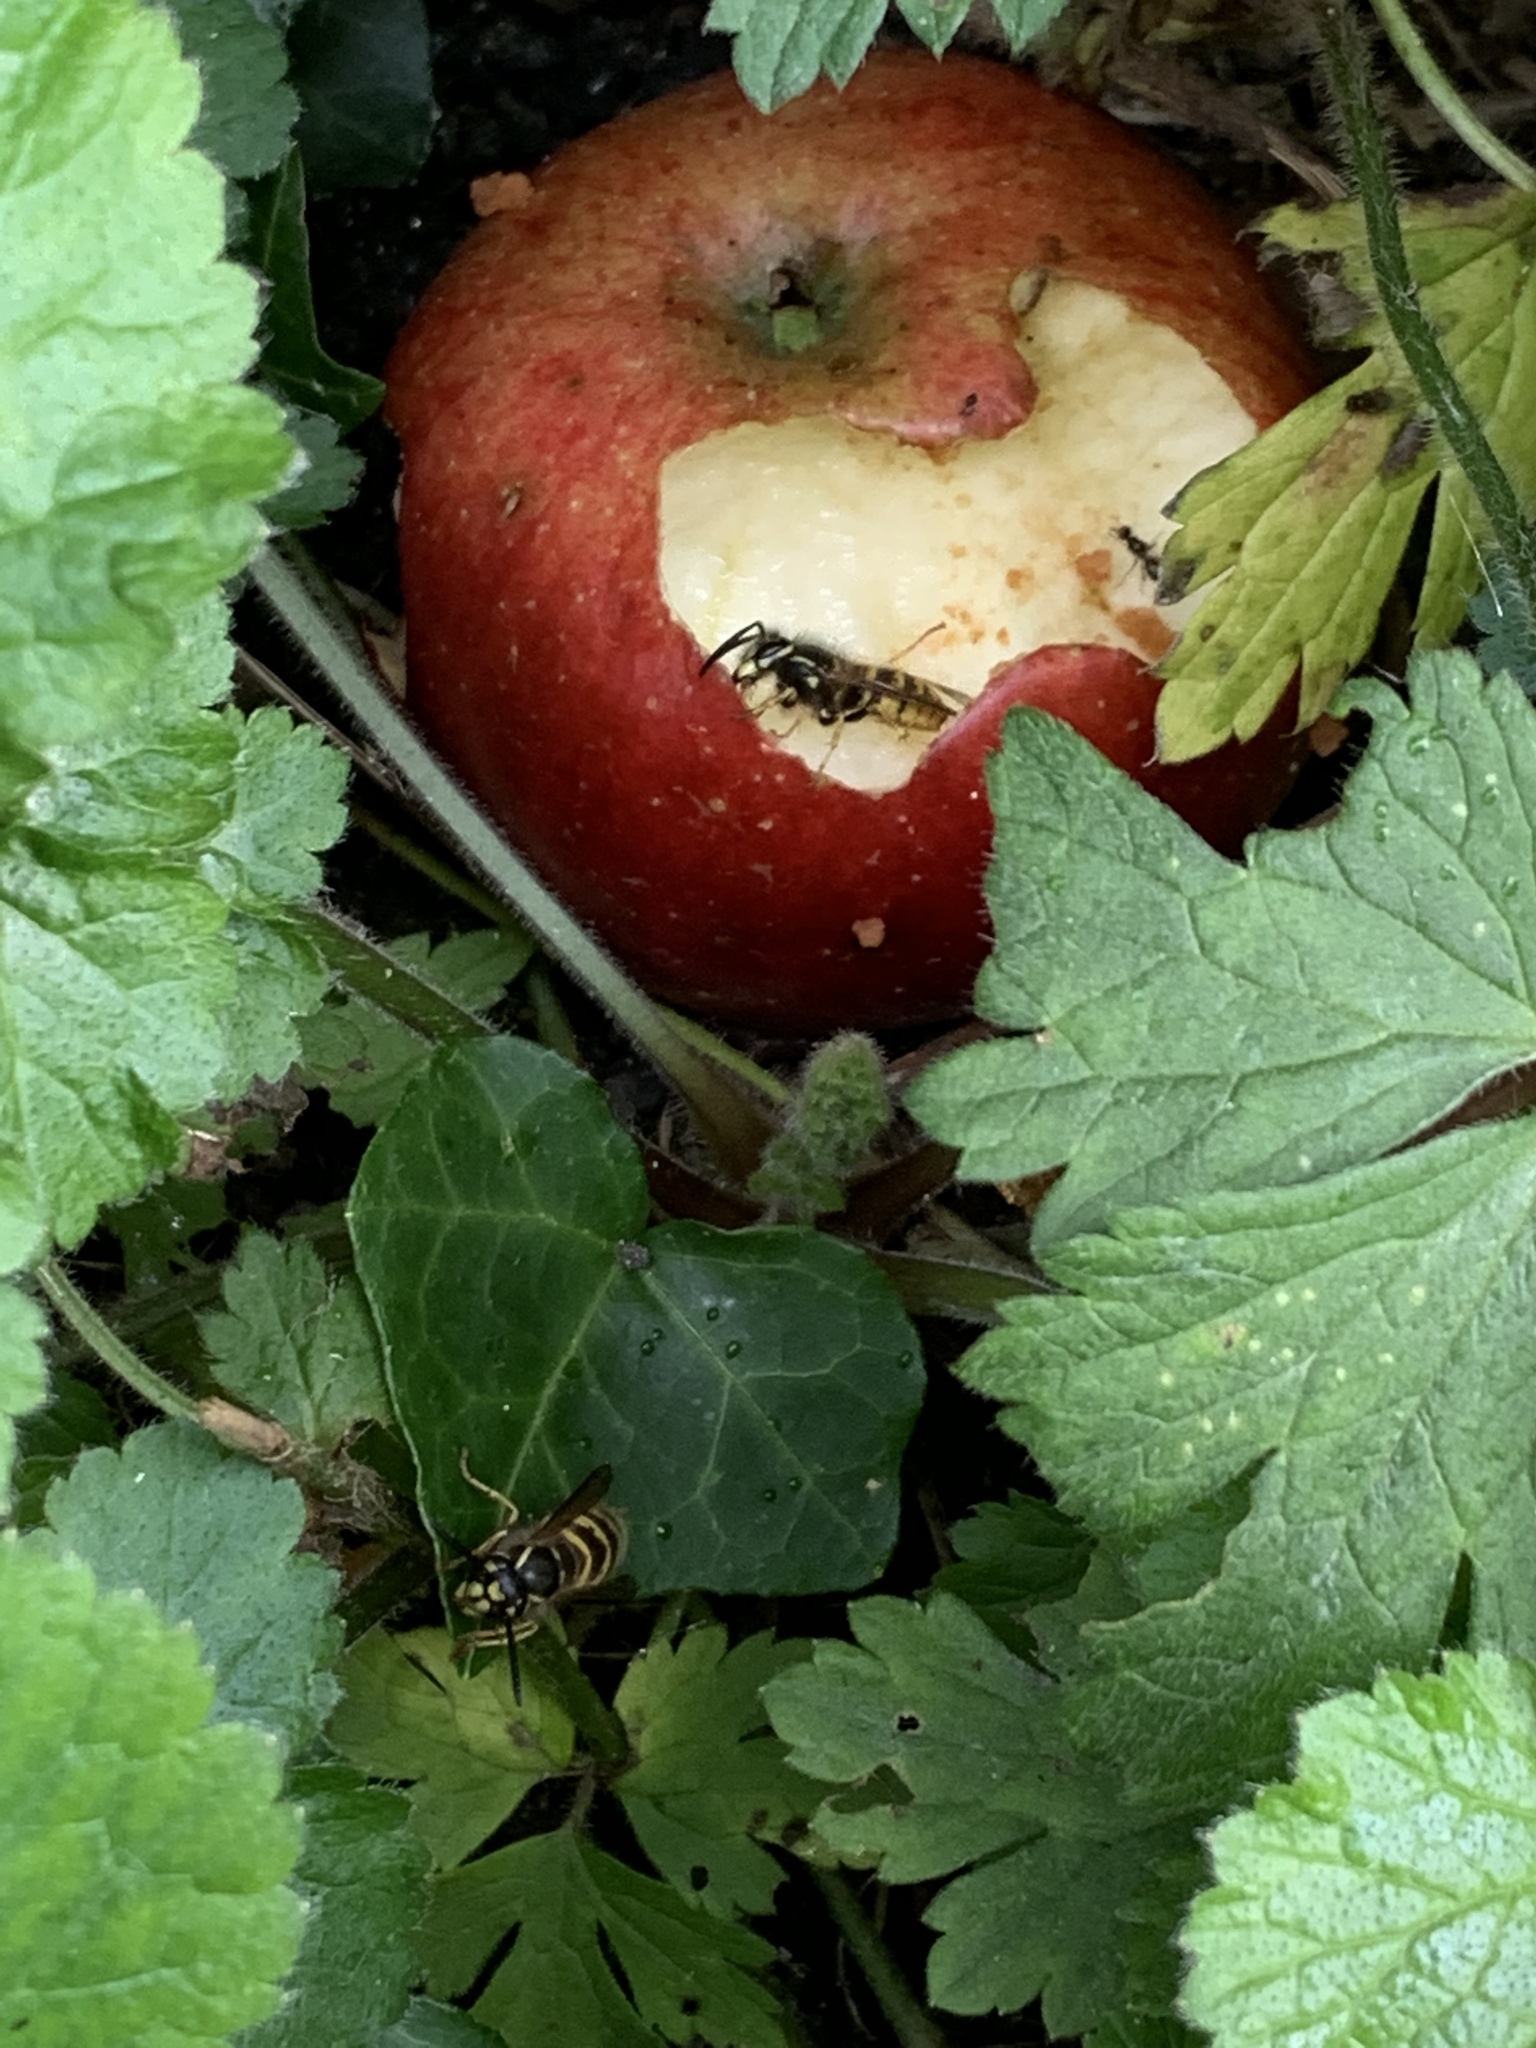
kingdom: Animalia
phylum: Arthropoda
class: Insecta
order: Hymenoptera
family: Vespidae
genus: Vespula
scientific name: Vespula vulgaris
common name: Common wasp
